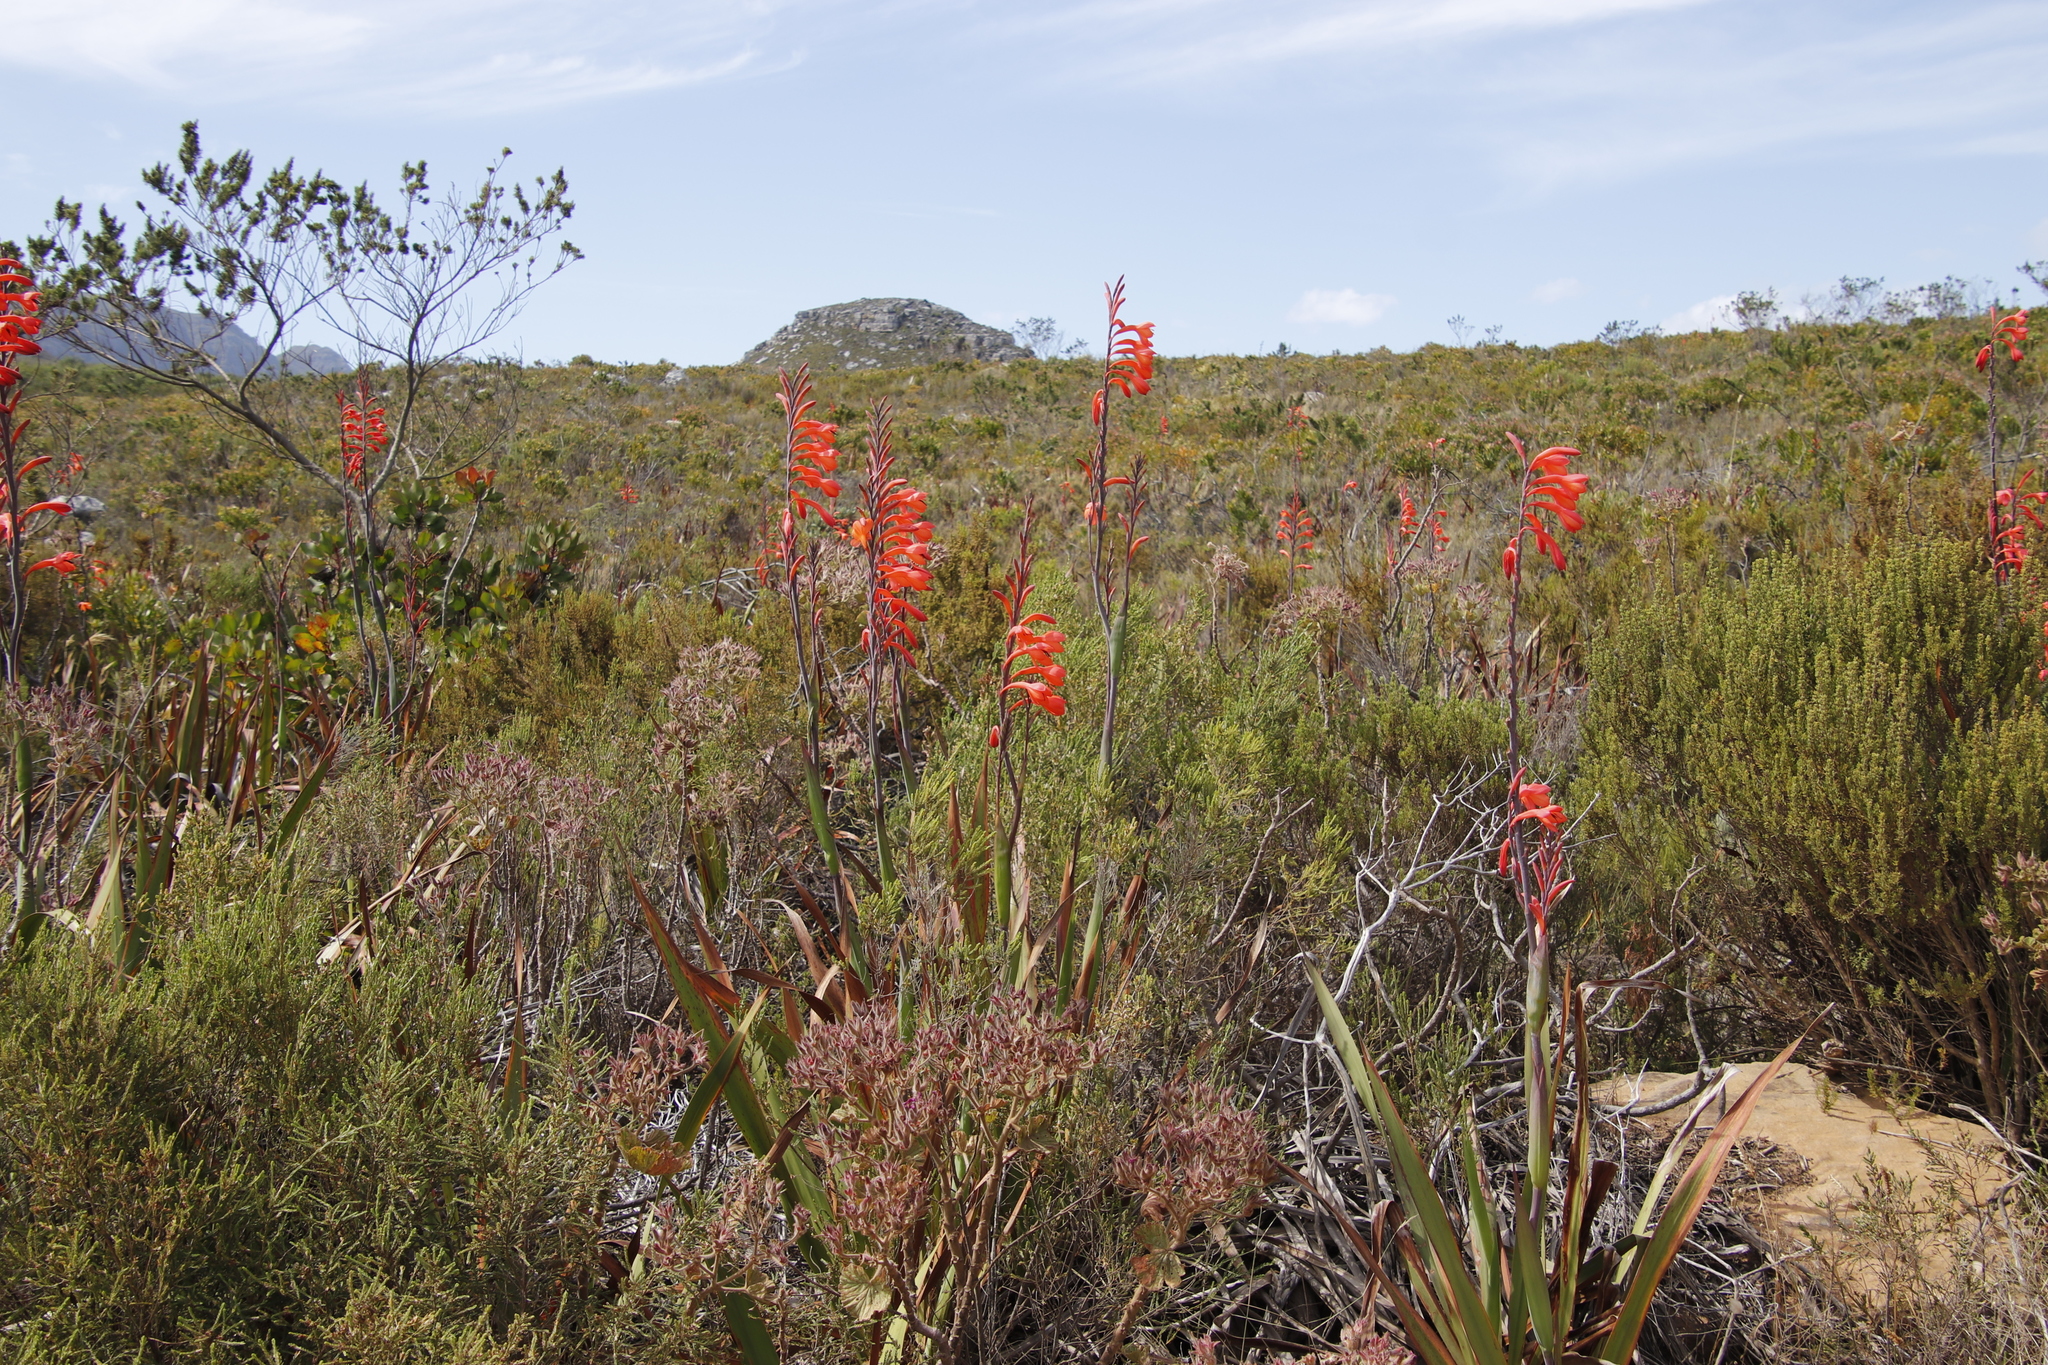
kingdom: Plantae
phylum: Tracheophyta
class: Liliopsida
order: Asparagales
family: Iridaceae
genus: Watsonia
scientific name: Watsonia tabularis
